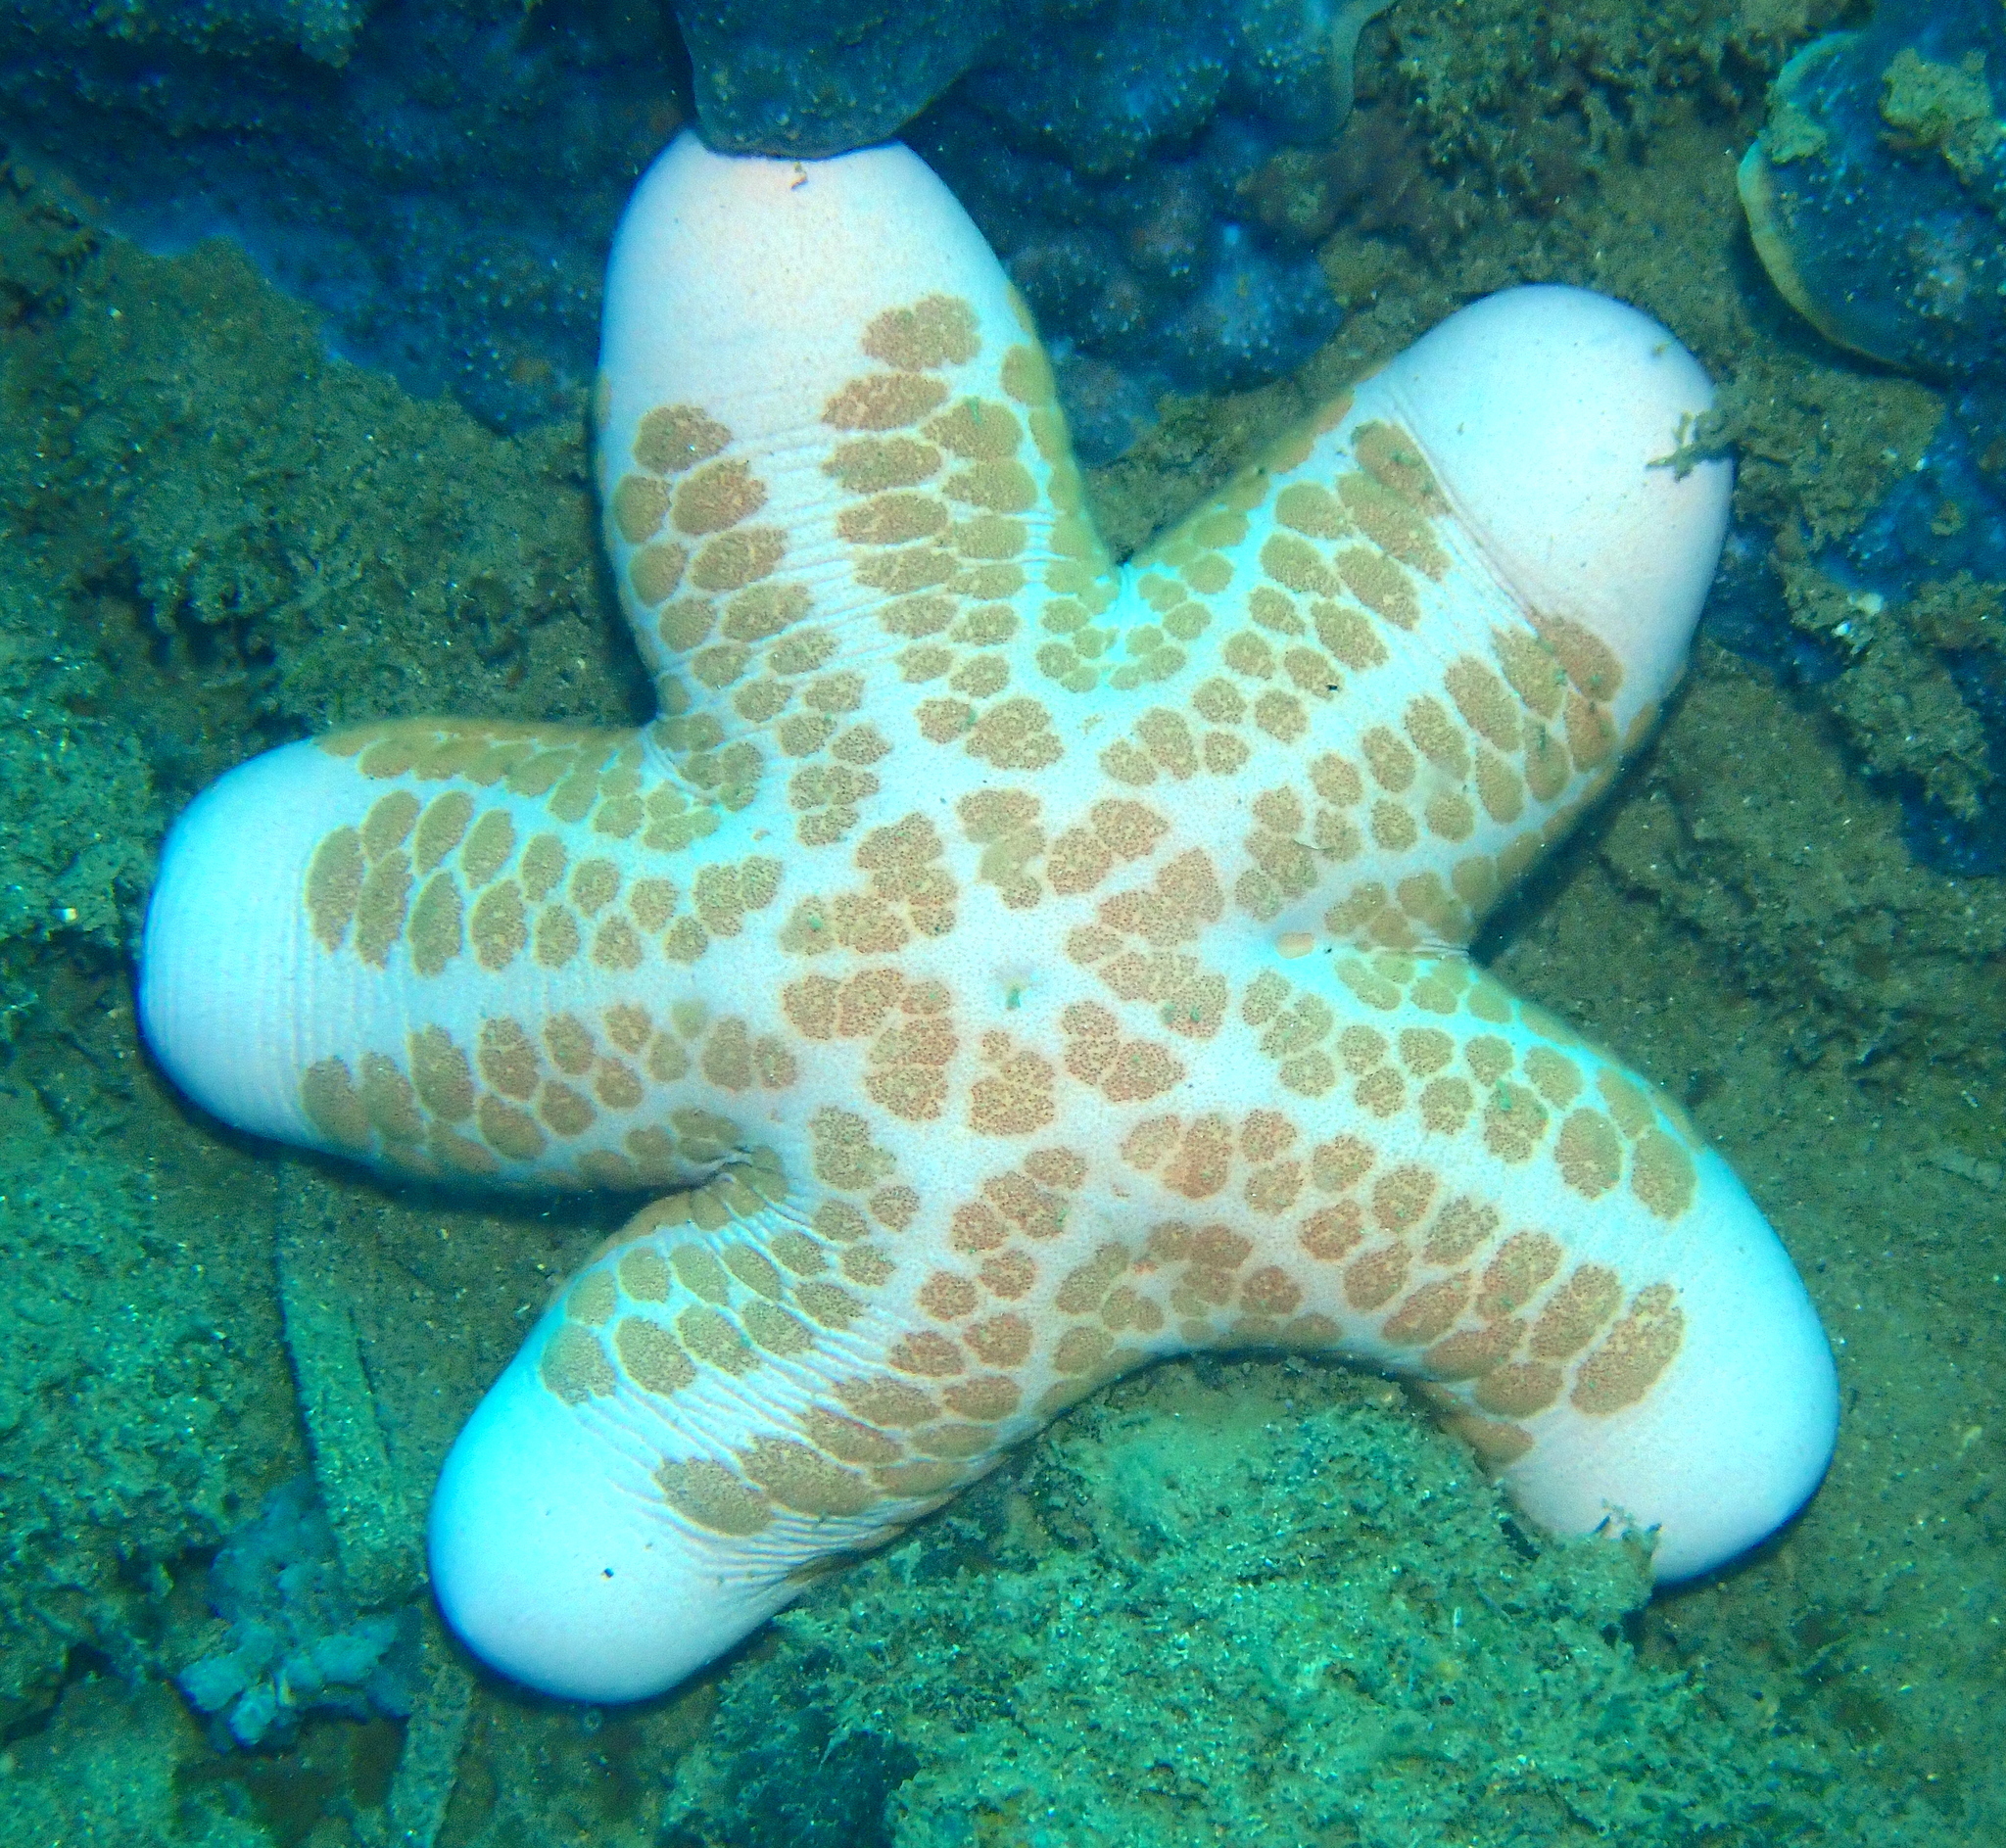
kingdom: Animalia
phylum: Echinodermata
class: Asteroidea
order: Valvatida
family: Oreasteridae
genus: Choriaster
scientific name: Choriaster granulatus
